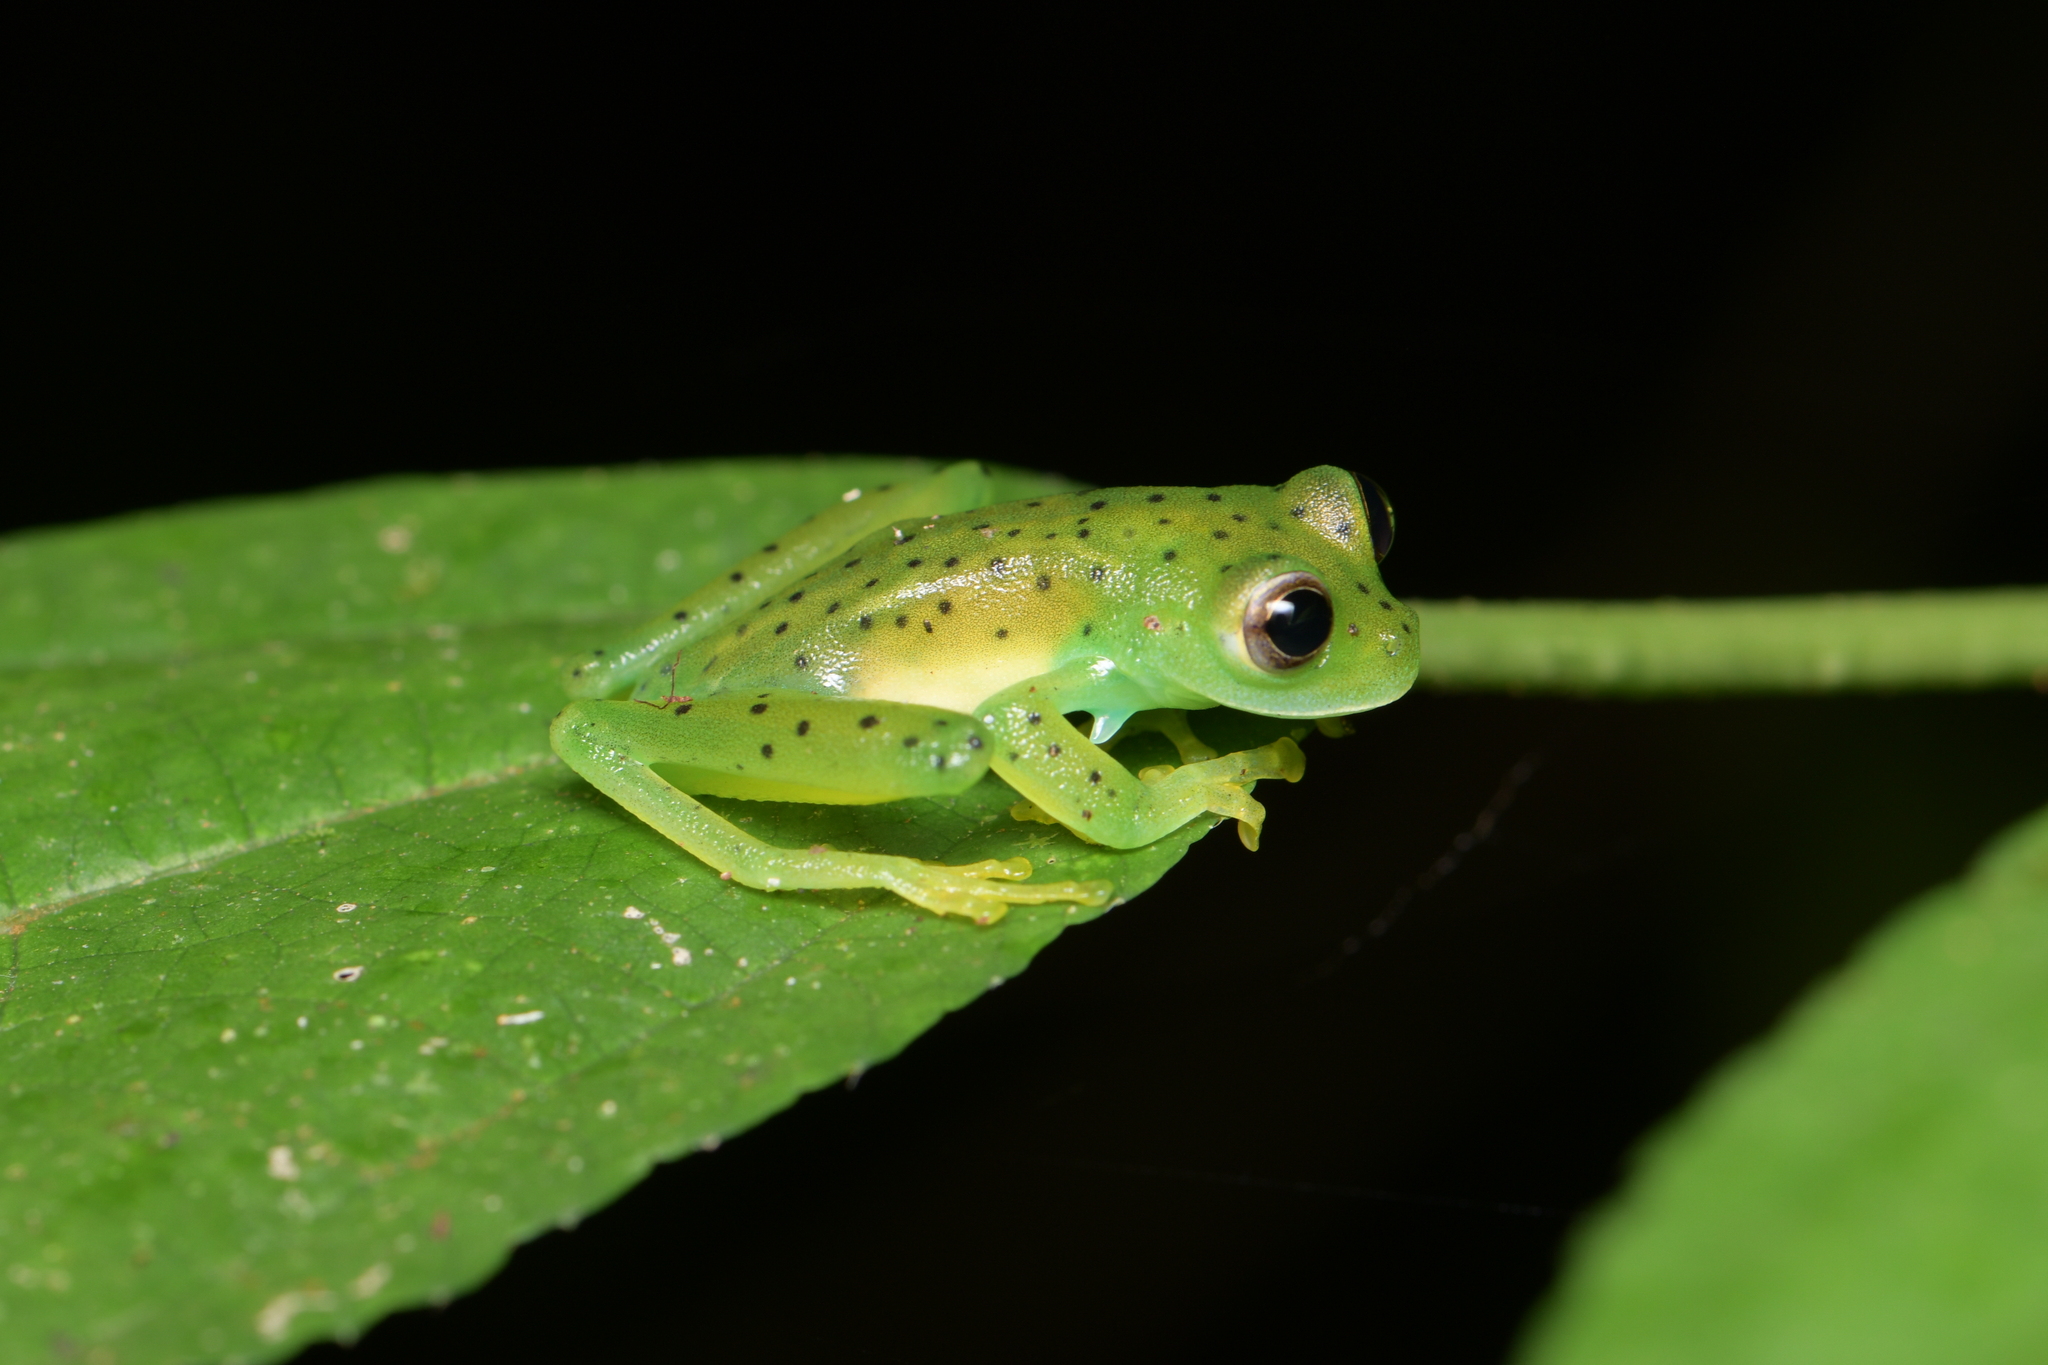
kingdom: Animalia
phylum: Chordata
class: Amphibia
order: Anura
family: Centrolenidae
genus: Espadarana
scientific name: Espadarana prosoblepon
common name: Rana de cristal variable
